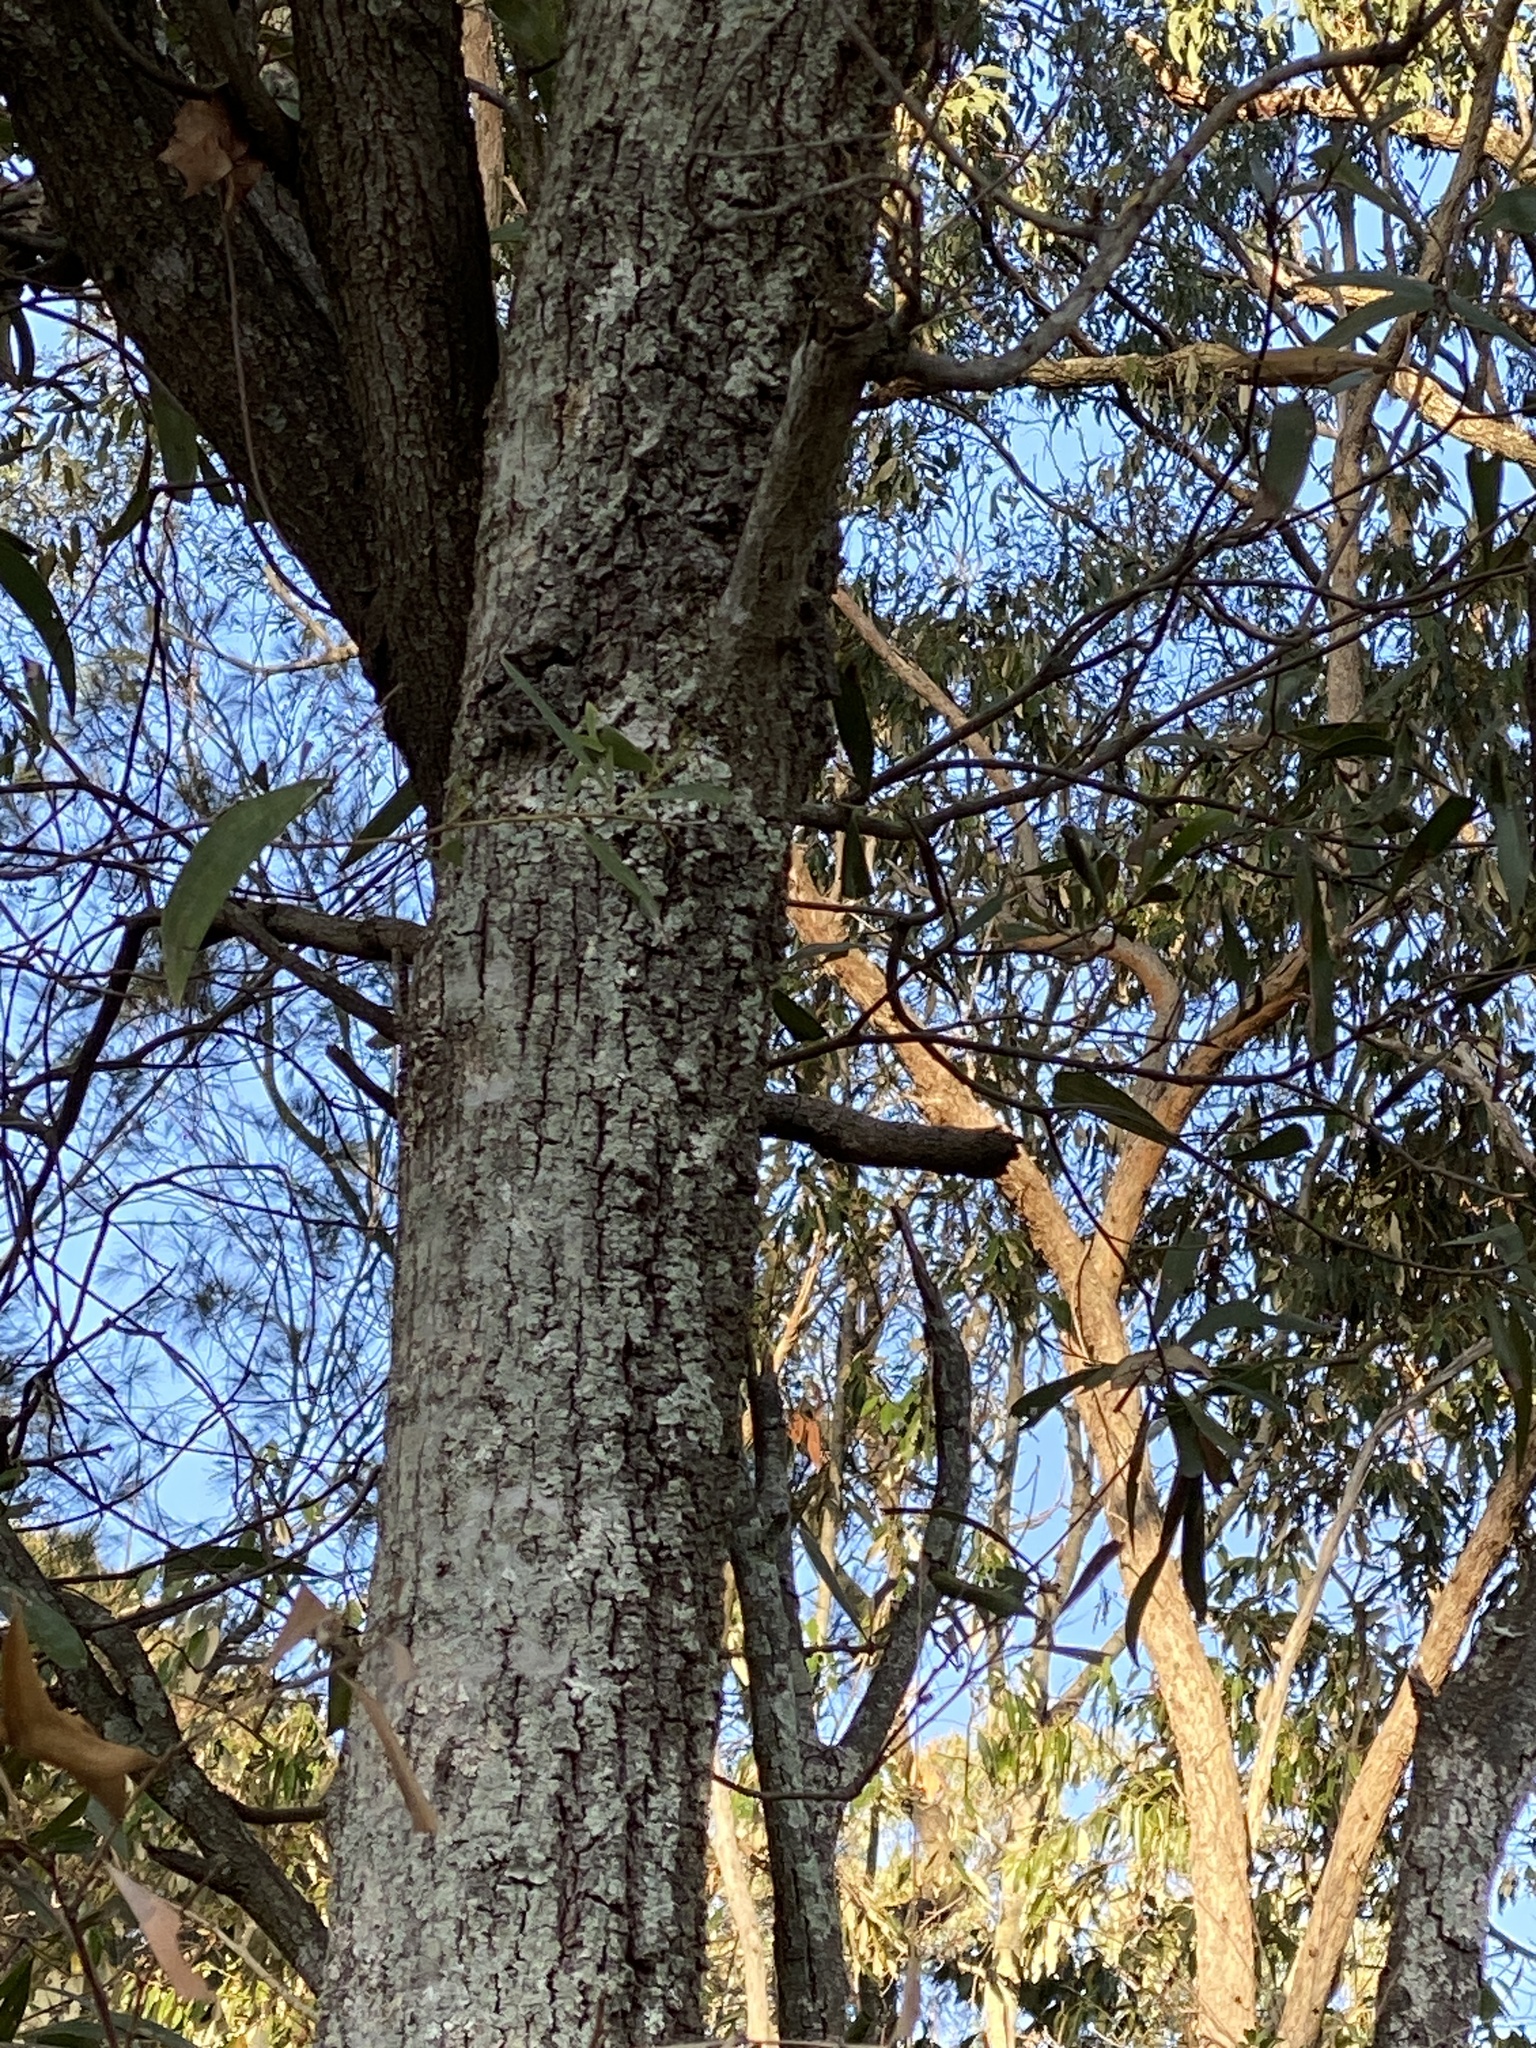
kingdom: Plantae
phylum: Tracheophyta
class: Magnoliopsida
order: Rosales
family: Rhamnaceae
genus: Alphitonia
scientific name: Alphitonia excelsa
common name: Red ash
